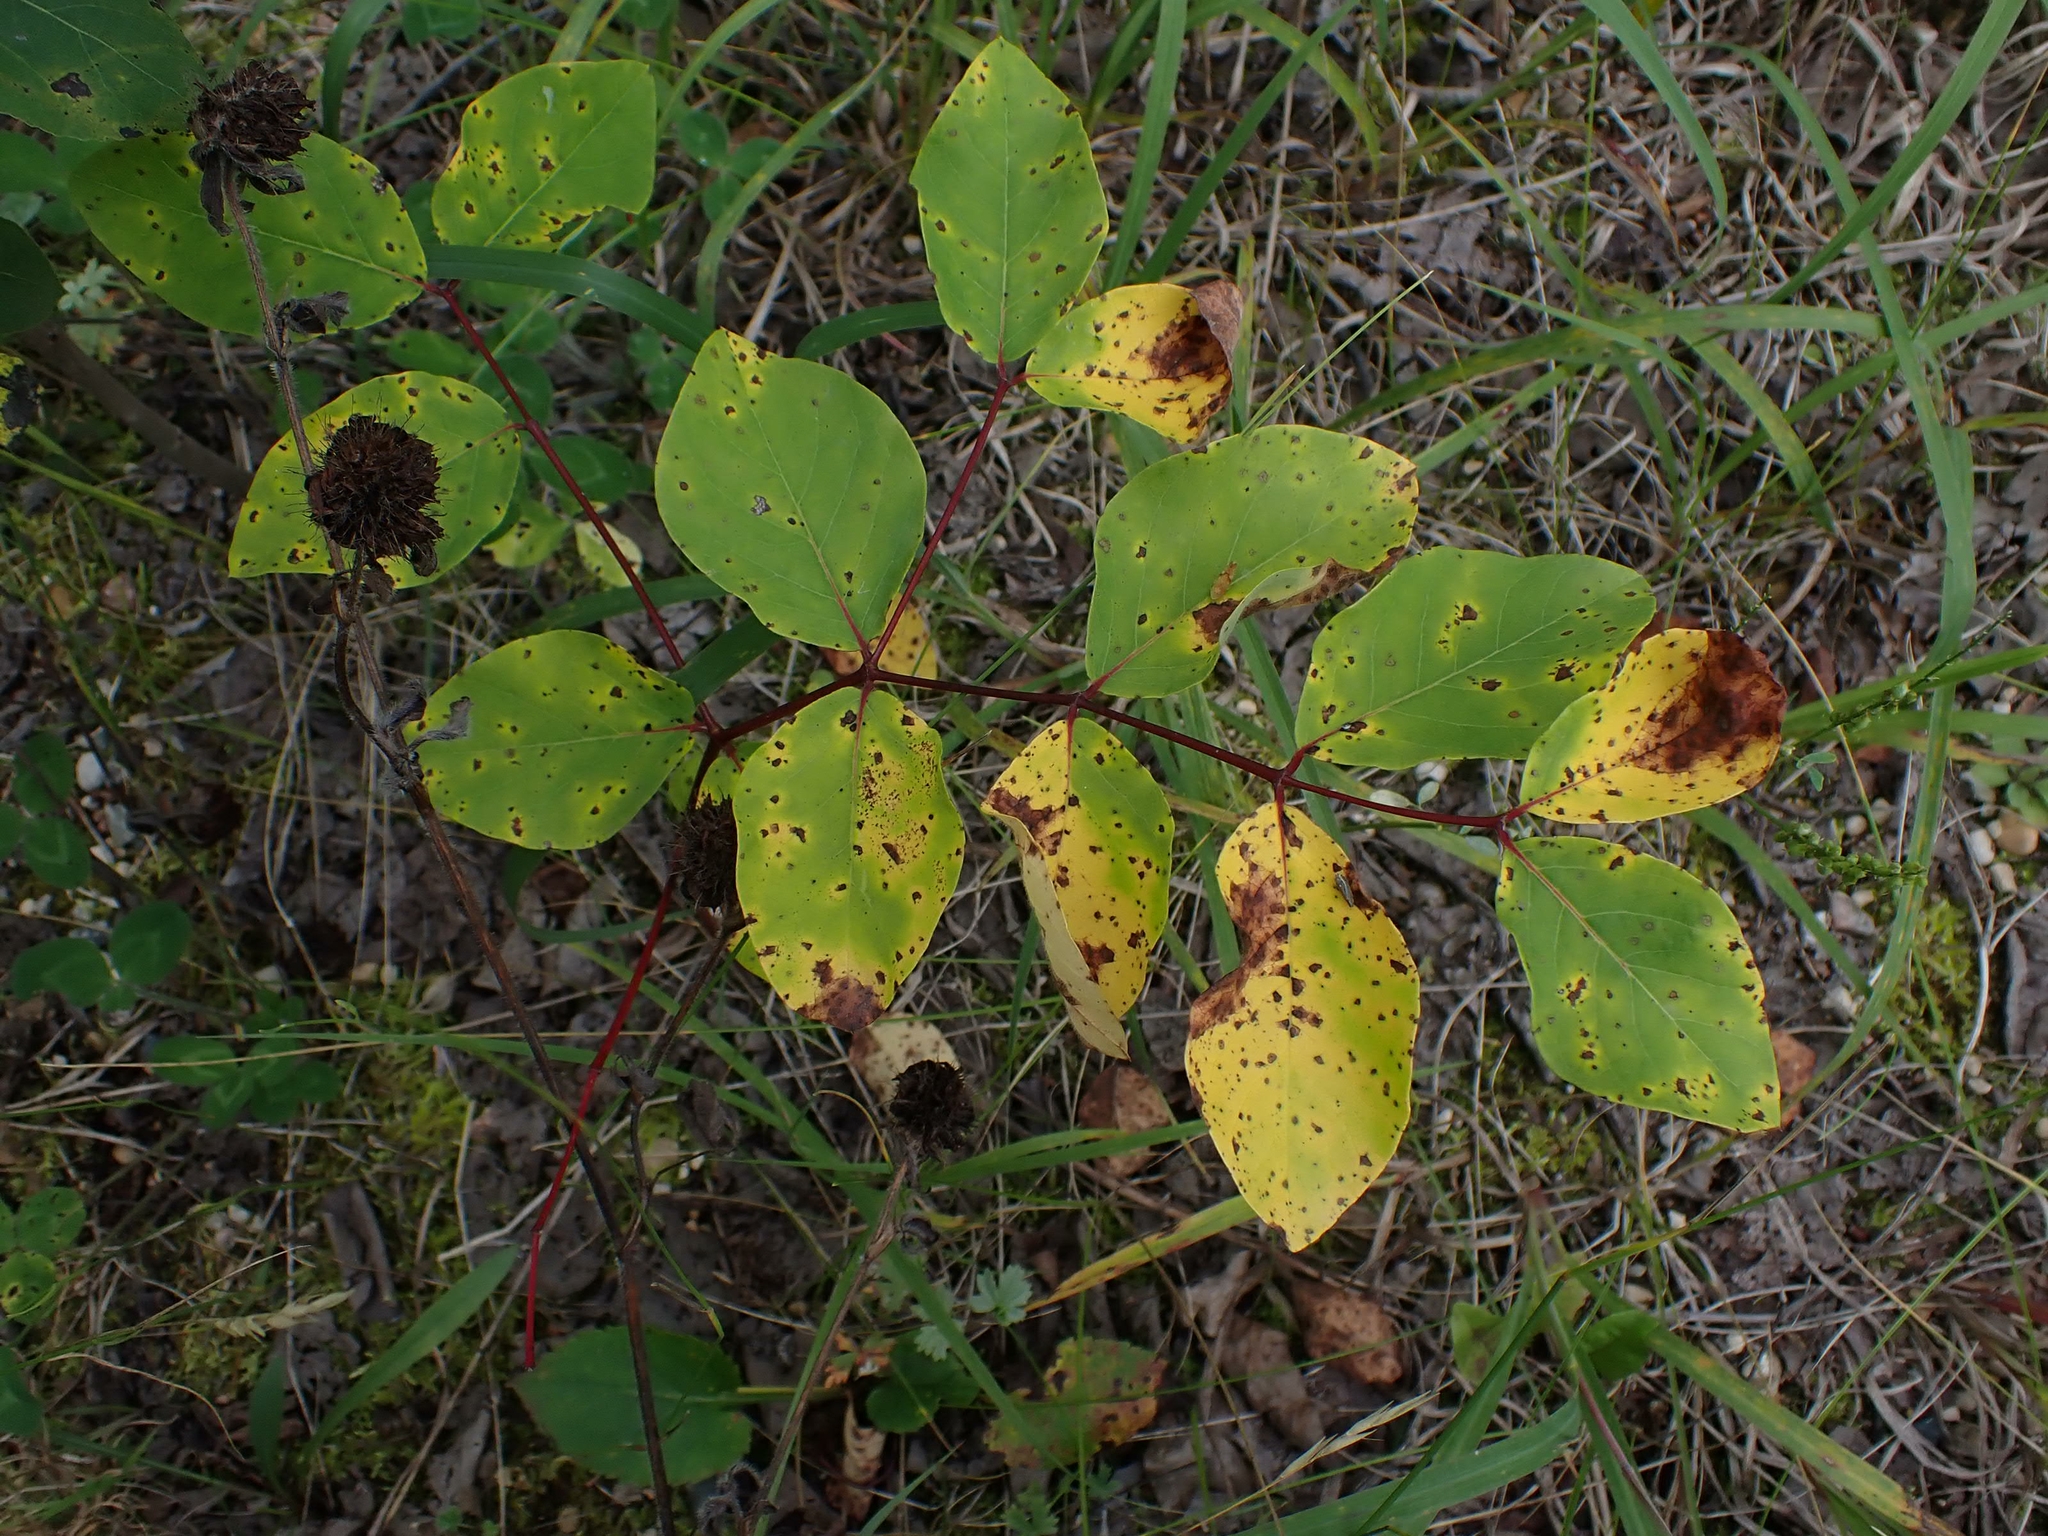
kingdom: Plantae
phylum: Tracheophyta
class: Magnoliopsida
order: Gentianales
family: Apocynaceae
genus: Apocynum
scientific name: Apocynum androsaemifolium
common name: Spreading dogbane
